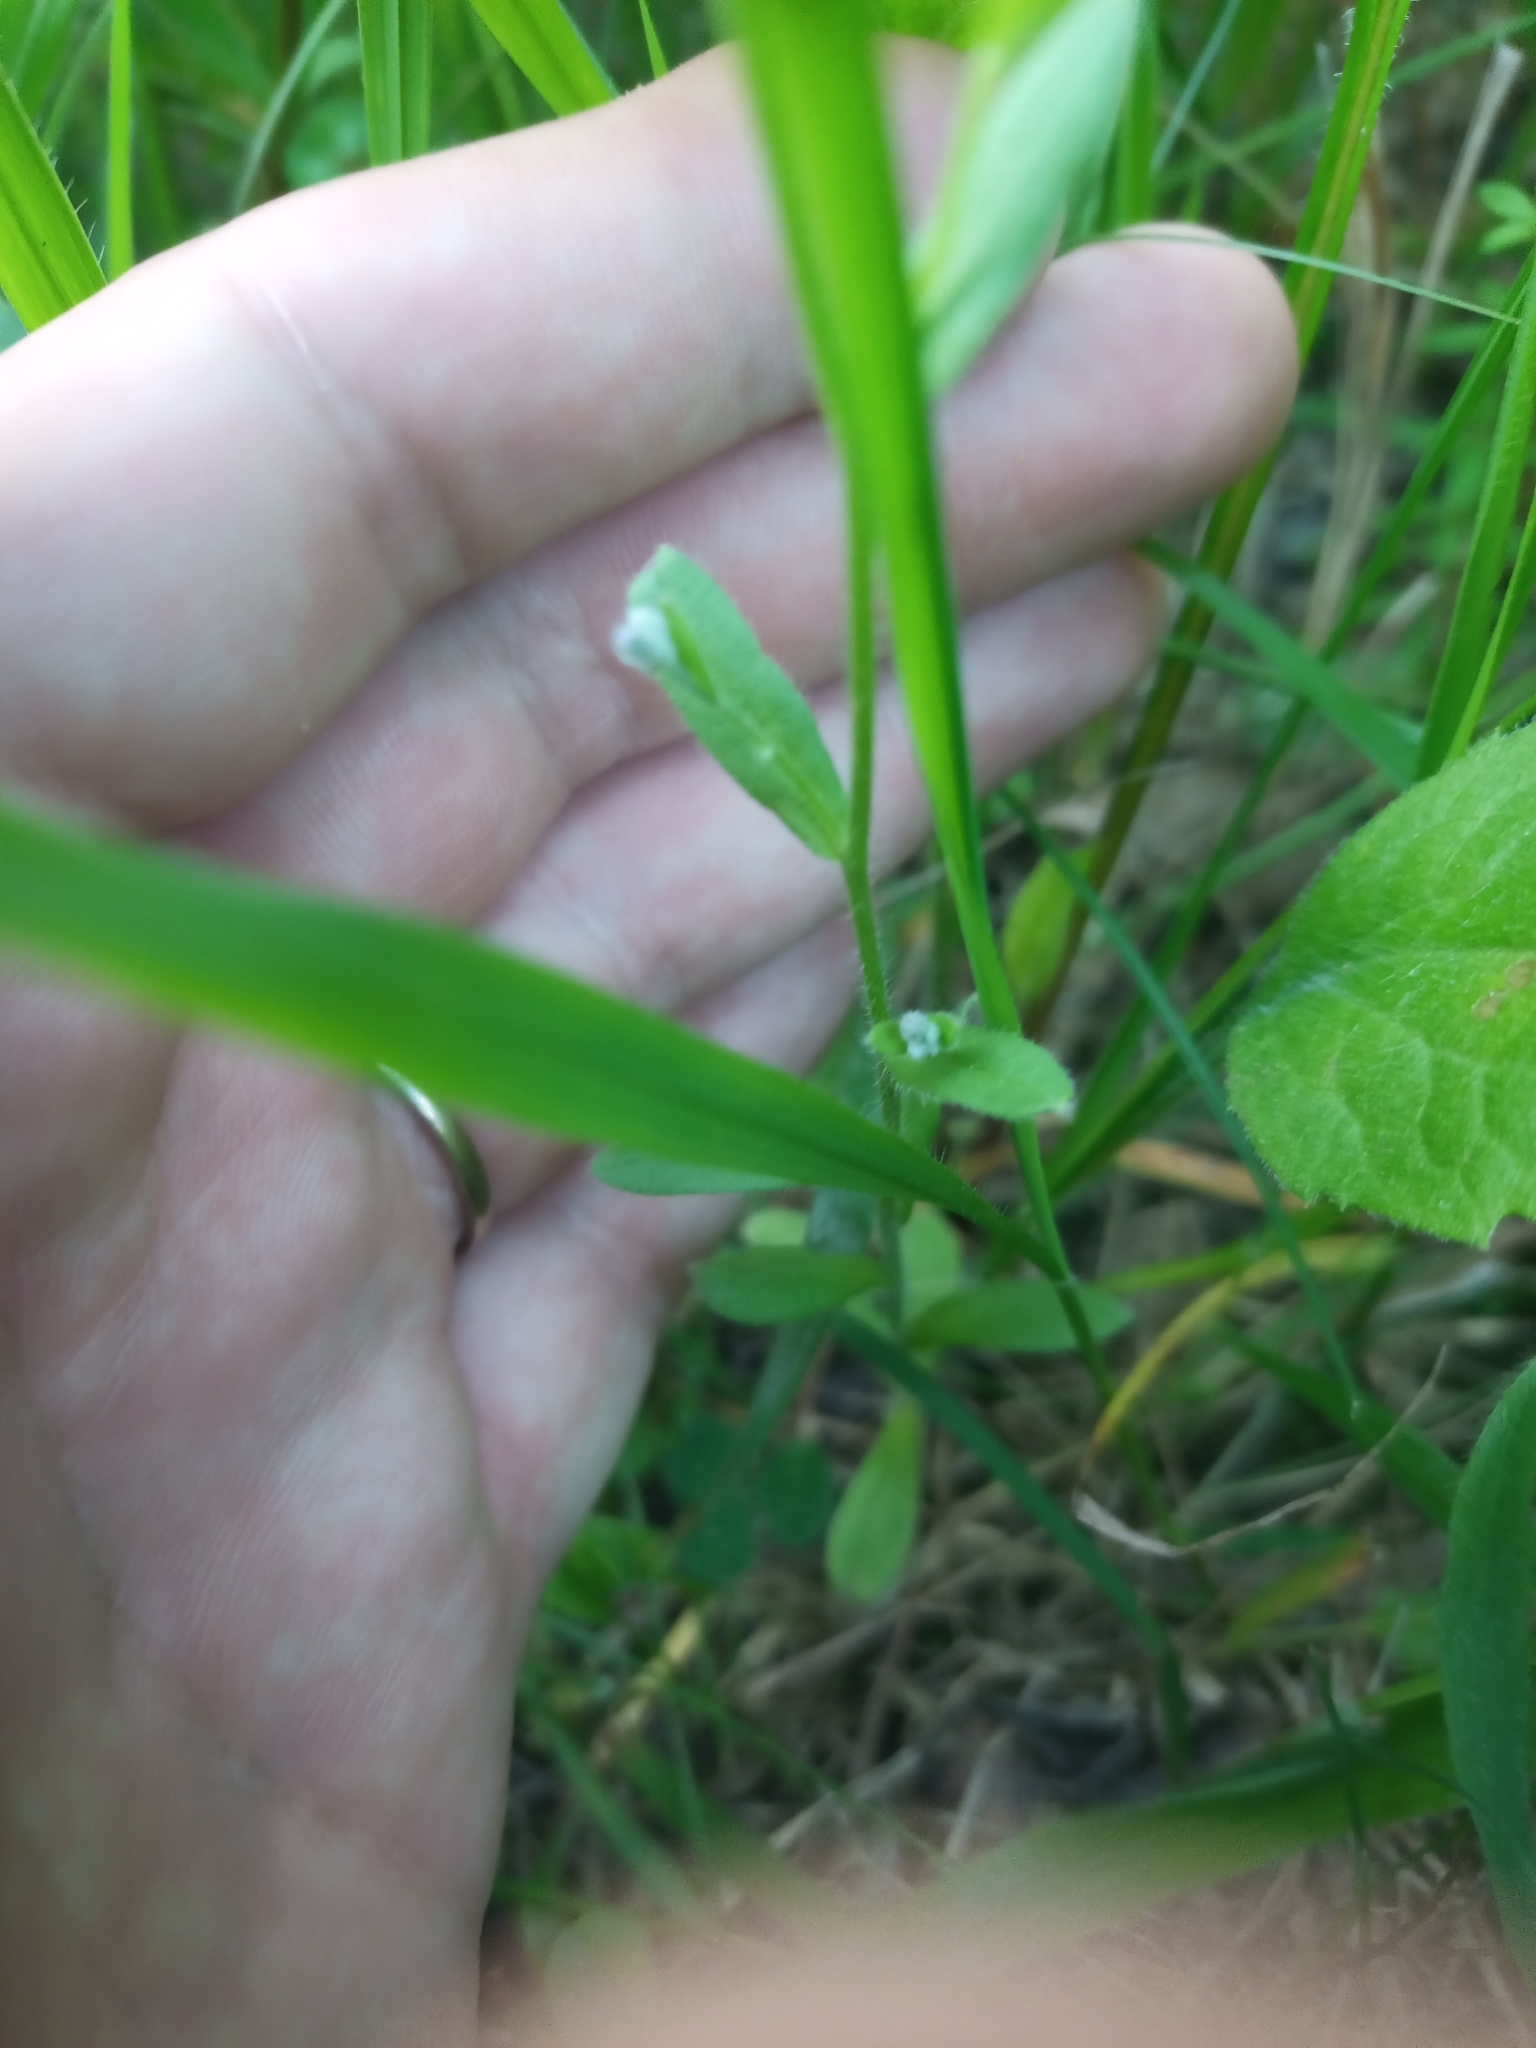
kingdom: Plantae
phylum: Tracheophyta
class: Magnoliopsida
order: Boraginales
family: Boraginaceae
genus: Myosotis
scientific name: Myosotis sylvatica
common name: Wood forget-me-not
